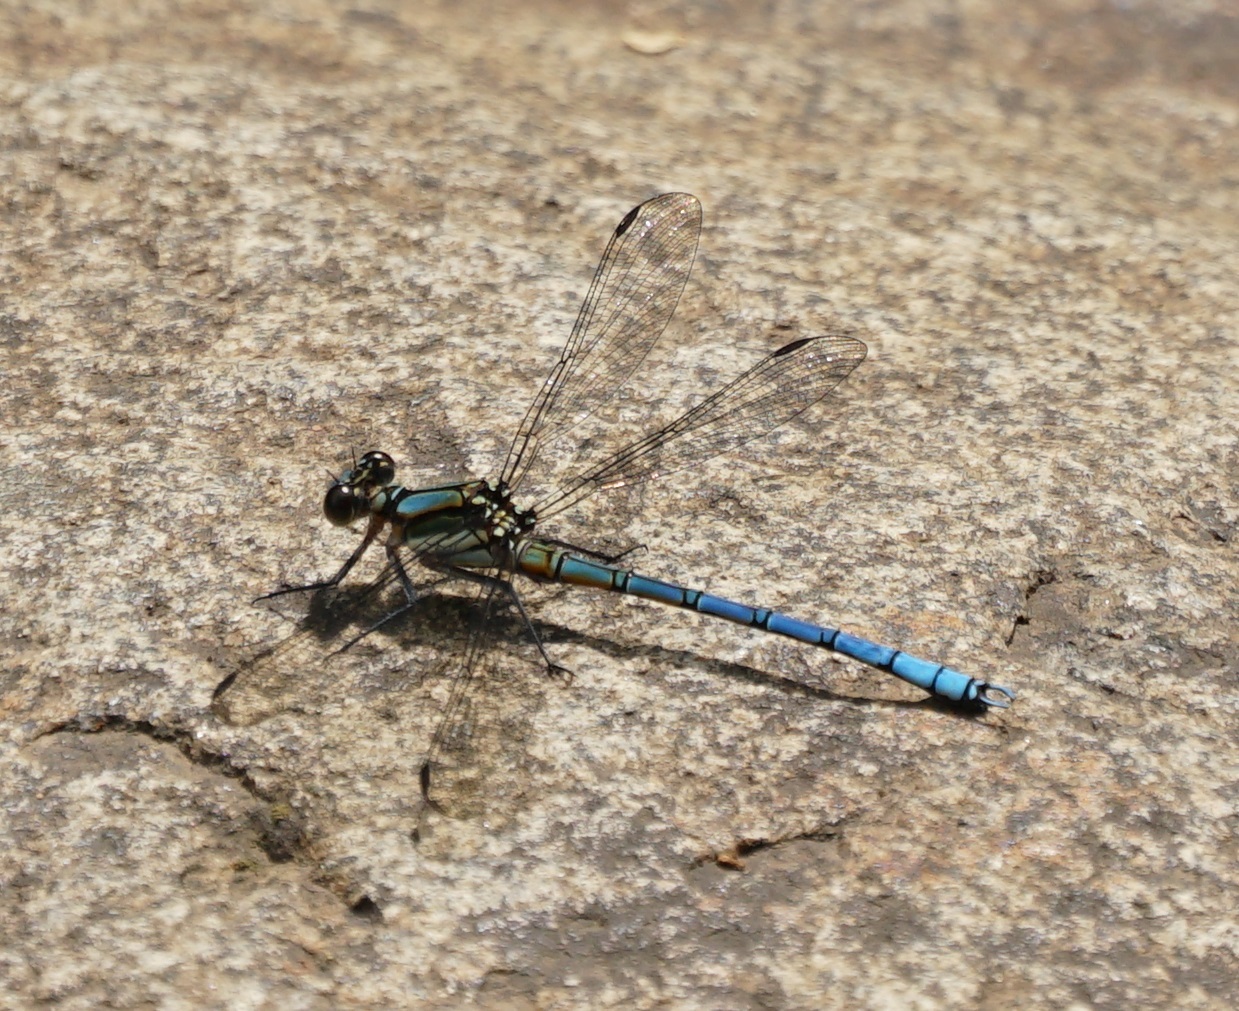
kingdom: Animalia
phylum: Arthropoda
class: Insecta
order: Odonata
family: Lestoideidae
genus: Diphlebia
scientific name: Diphlebia lestoides
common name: Whitewater rockmaster
